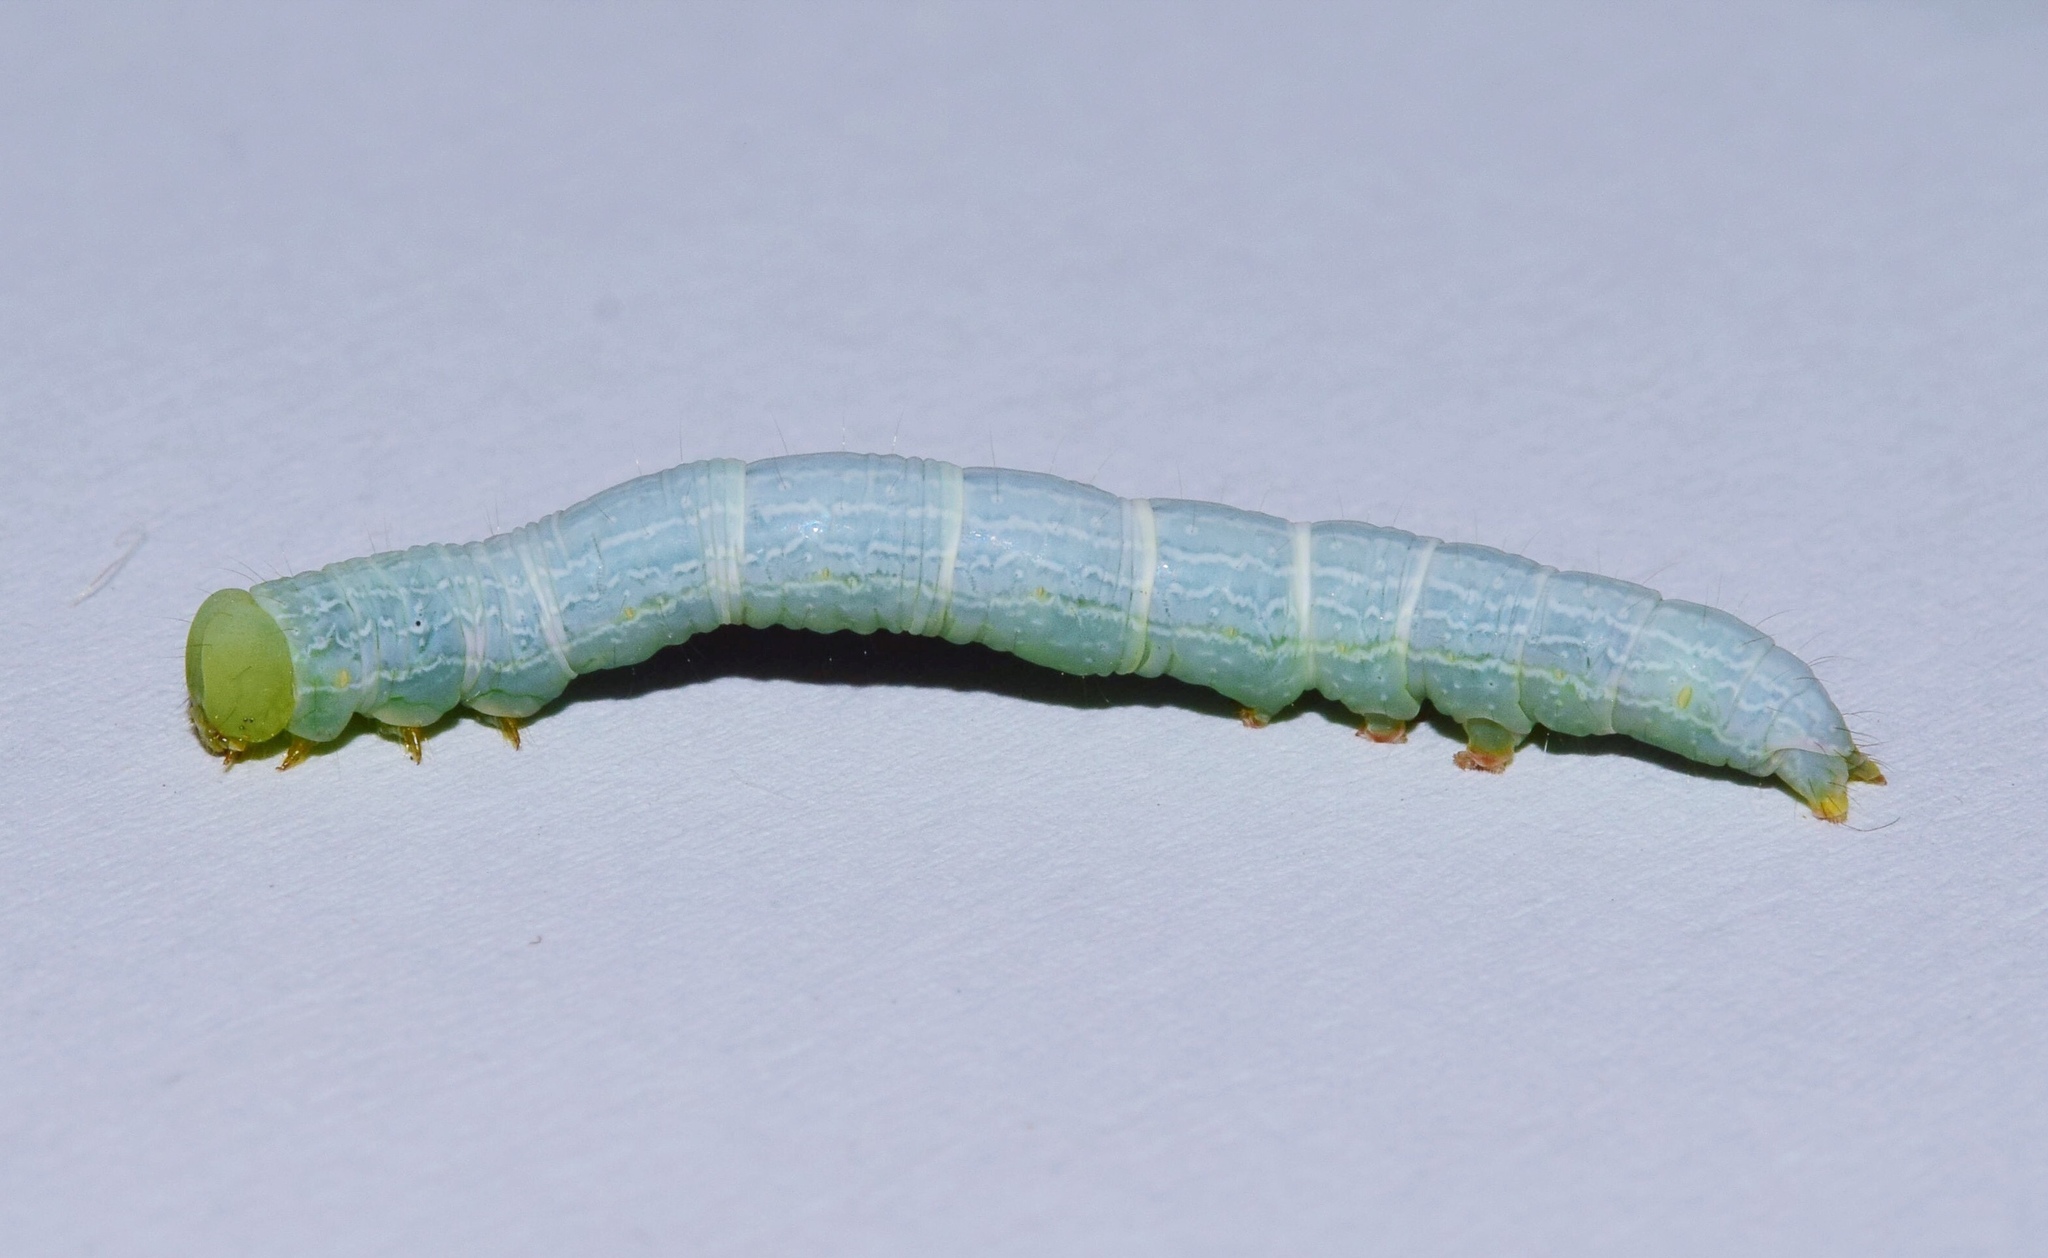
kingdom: Animalia
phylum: Arthropoda
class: Insecta
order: Lepidoptera
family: Erebidae
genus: Plecoptera
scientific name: Plecoptera poderis
